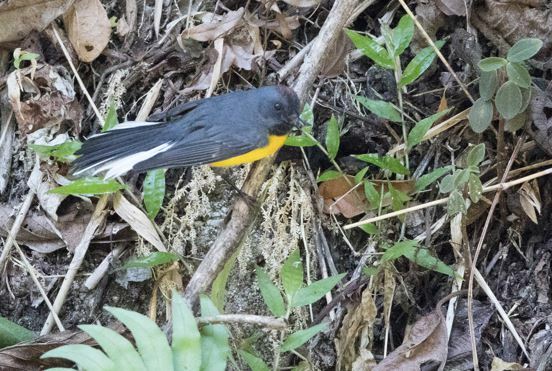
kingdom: Animalia
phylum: Chordata
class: Aves
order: Passeriformes
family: Parulidae
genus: Myioborus
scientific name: Myioborus miniatus
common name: Slate-throated redstart
